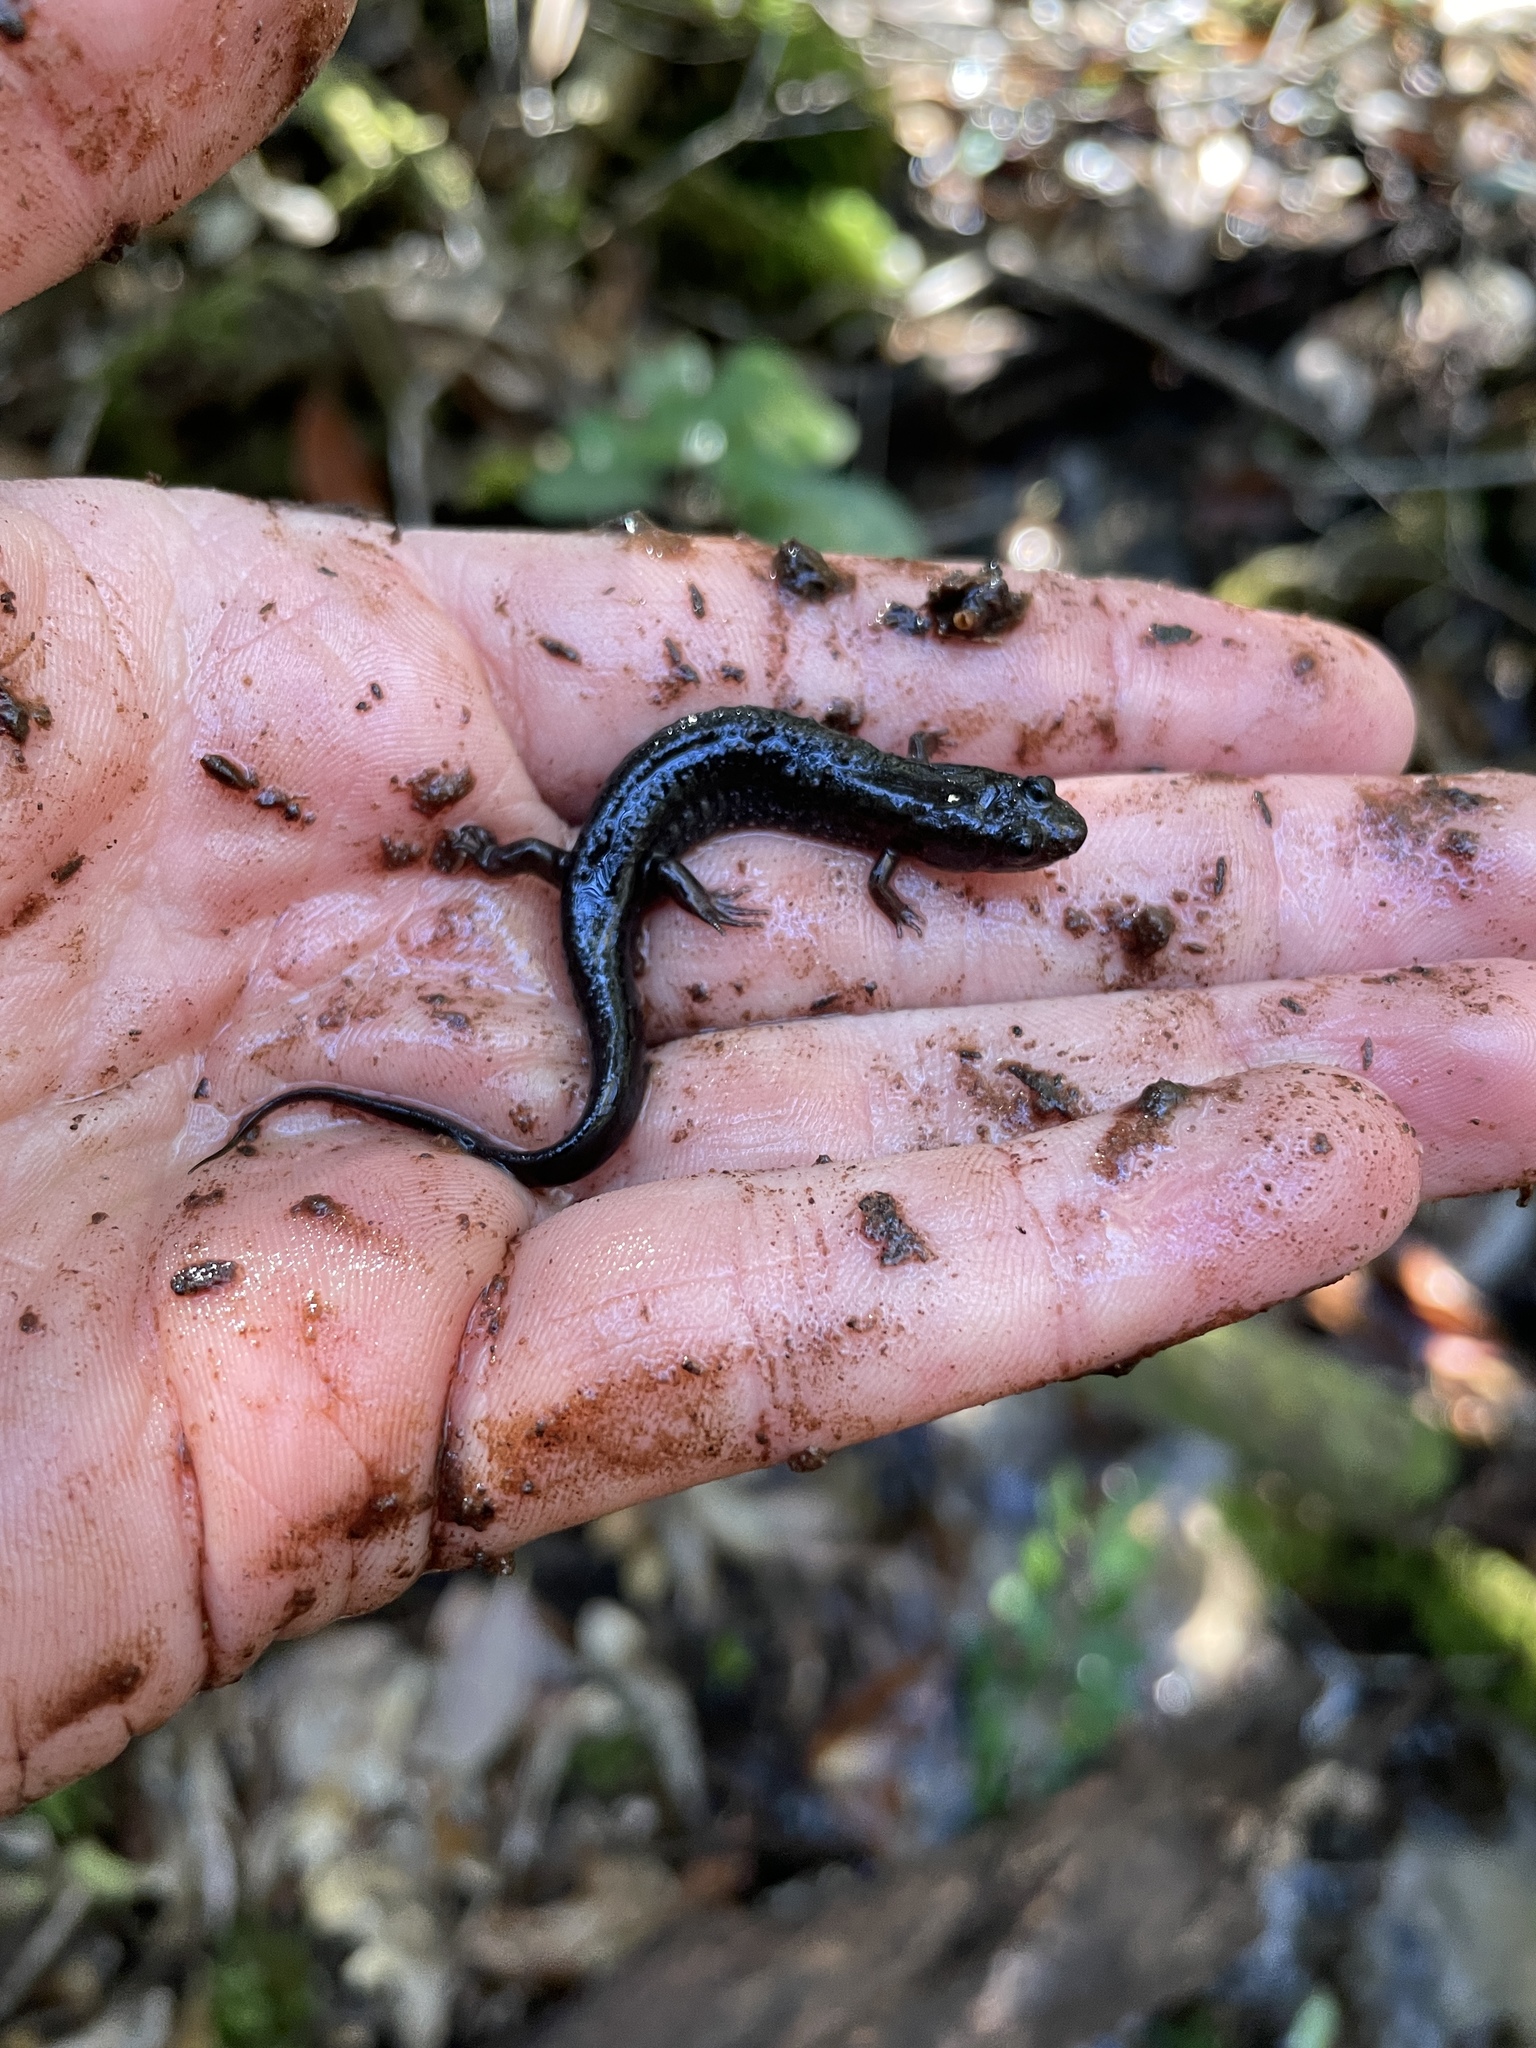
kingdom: Animalia
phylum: Chordata
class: Amphibia
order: Caudata
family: Plethodontidae
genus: Desmognathus
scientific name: Desmognathus conanti
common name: Spotted dusky salamander
